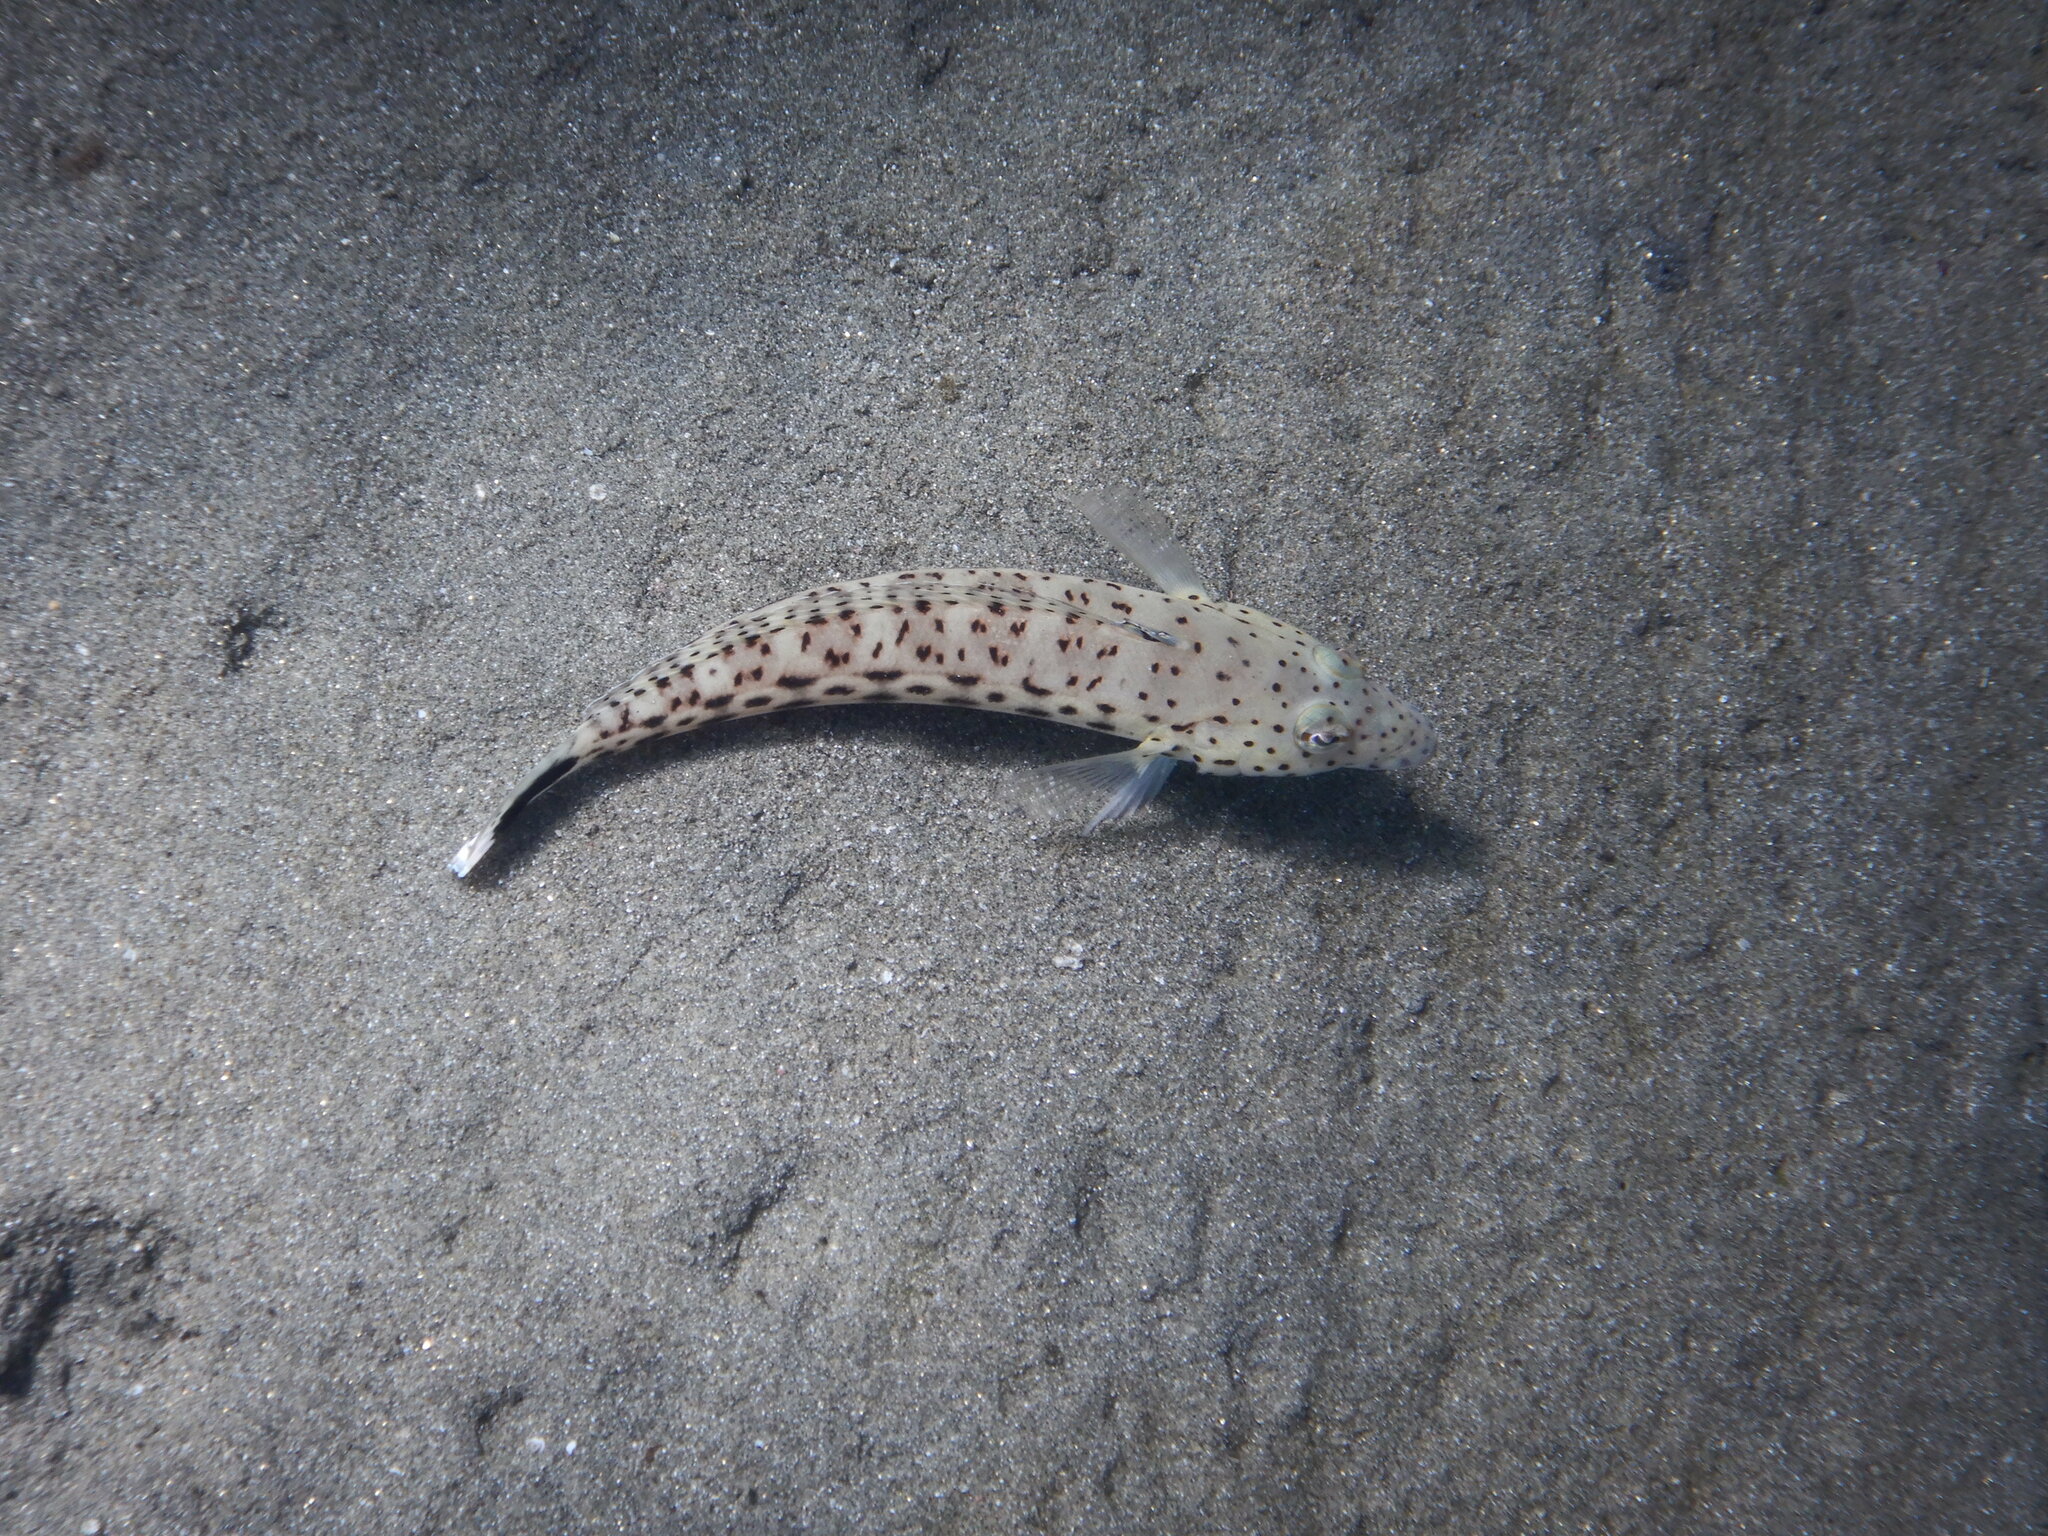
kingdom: Animalia
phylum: Chordata
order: Perciformes
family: Pinguipedidae
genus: Parapercis
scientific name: Parapercis hexophtalma
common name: Speckled sandperch
